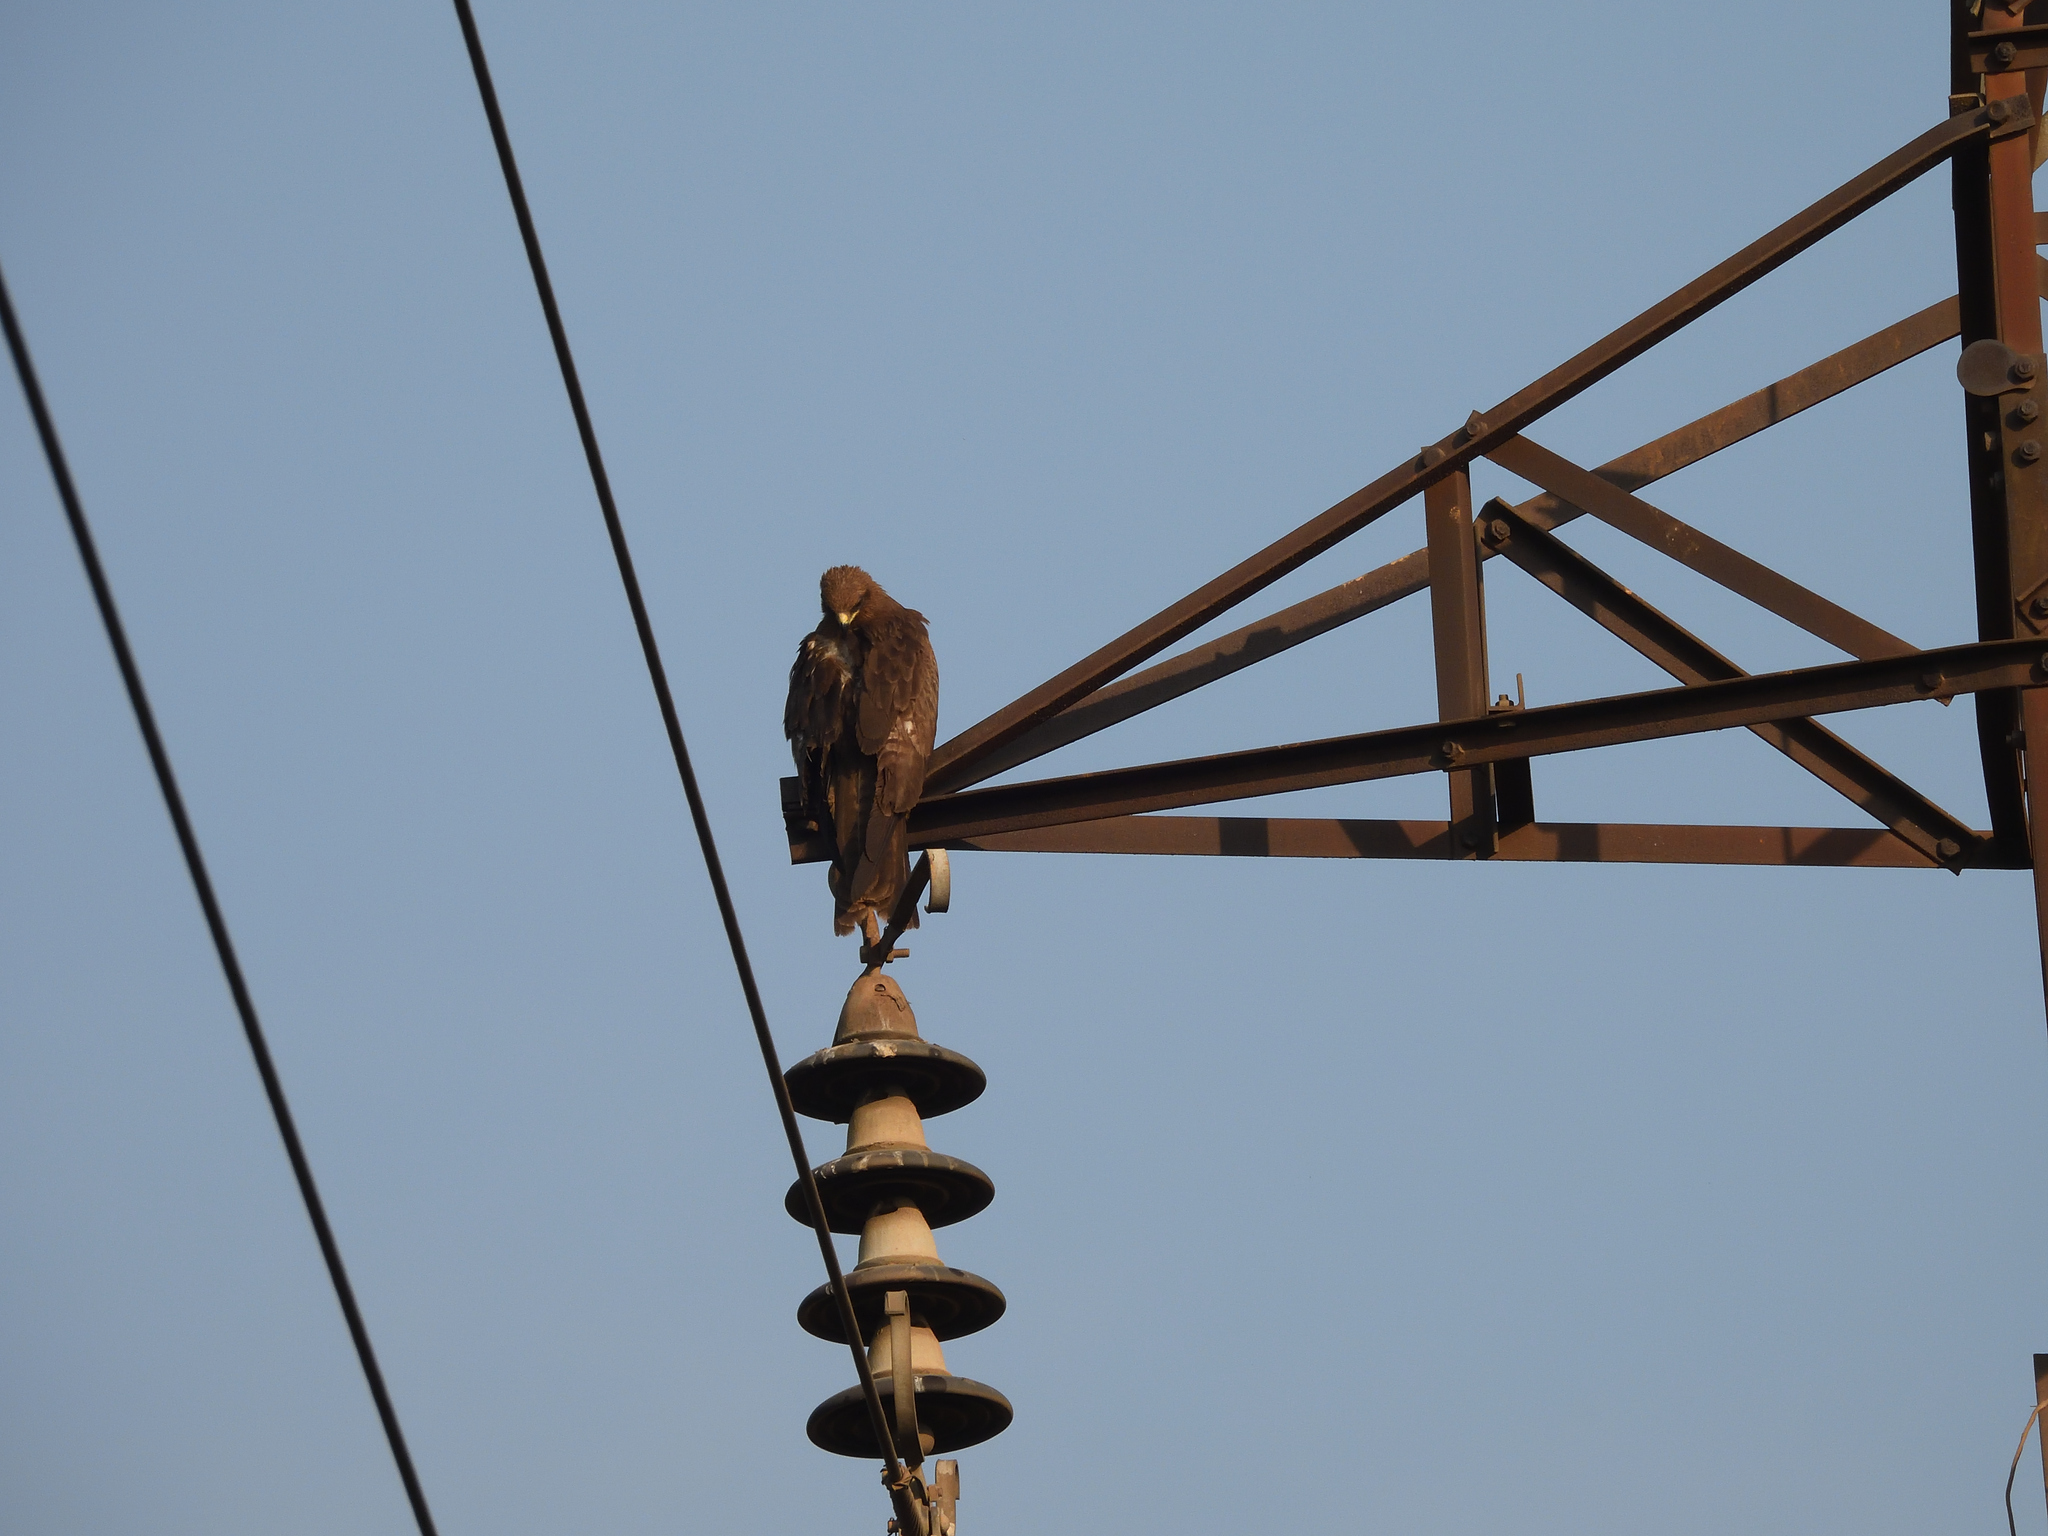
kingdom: Animalia
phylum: Chordata
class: Aves
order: Accipitriformes
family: Accipitridae
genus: Milvus
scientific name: Milvus migrans
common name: Black kite
